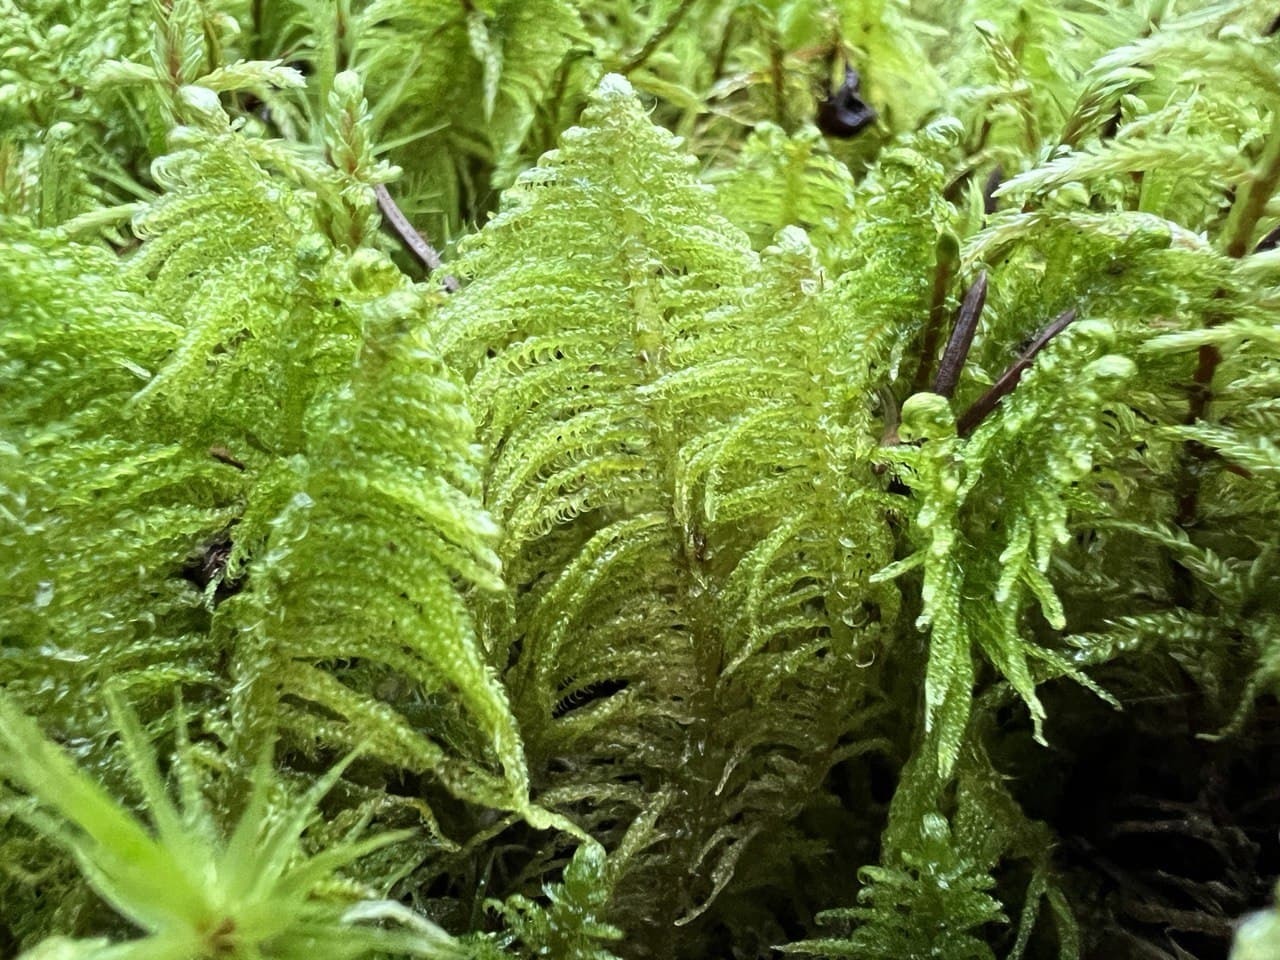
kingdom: Plantae
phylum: Bryophyta
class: Bryopsida
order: Hypnales
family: Pylaisiaceae
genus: Ptilium
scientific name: Ptilium crista-castrensis
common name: Knight's plume moss
